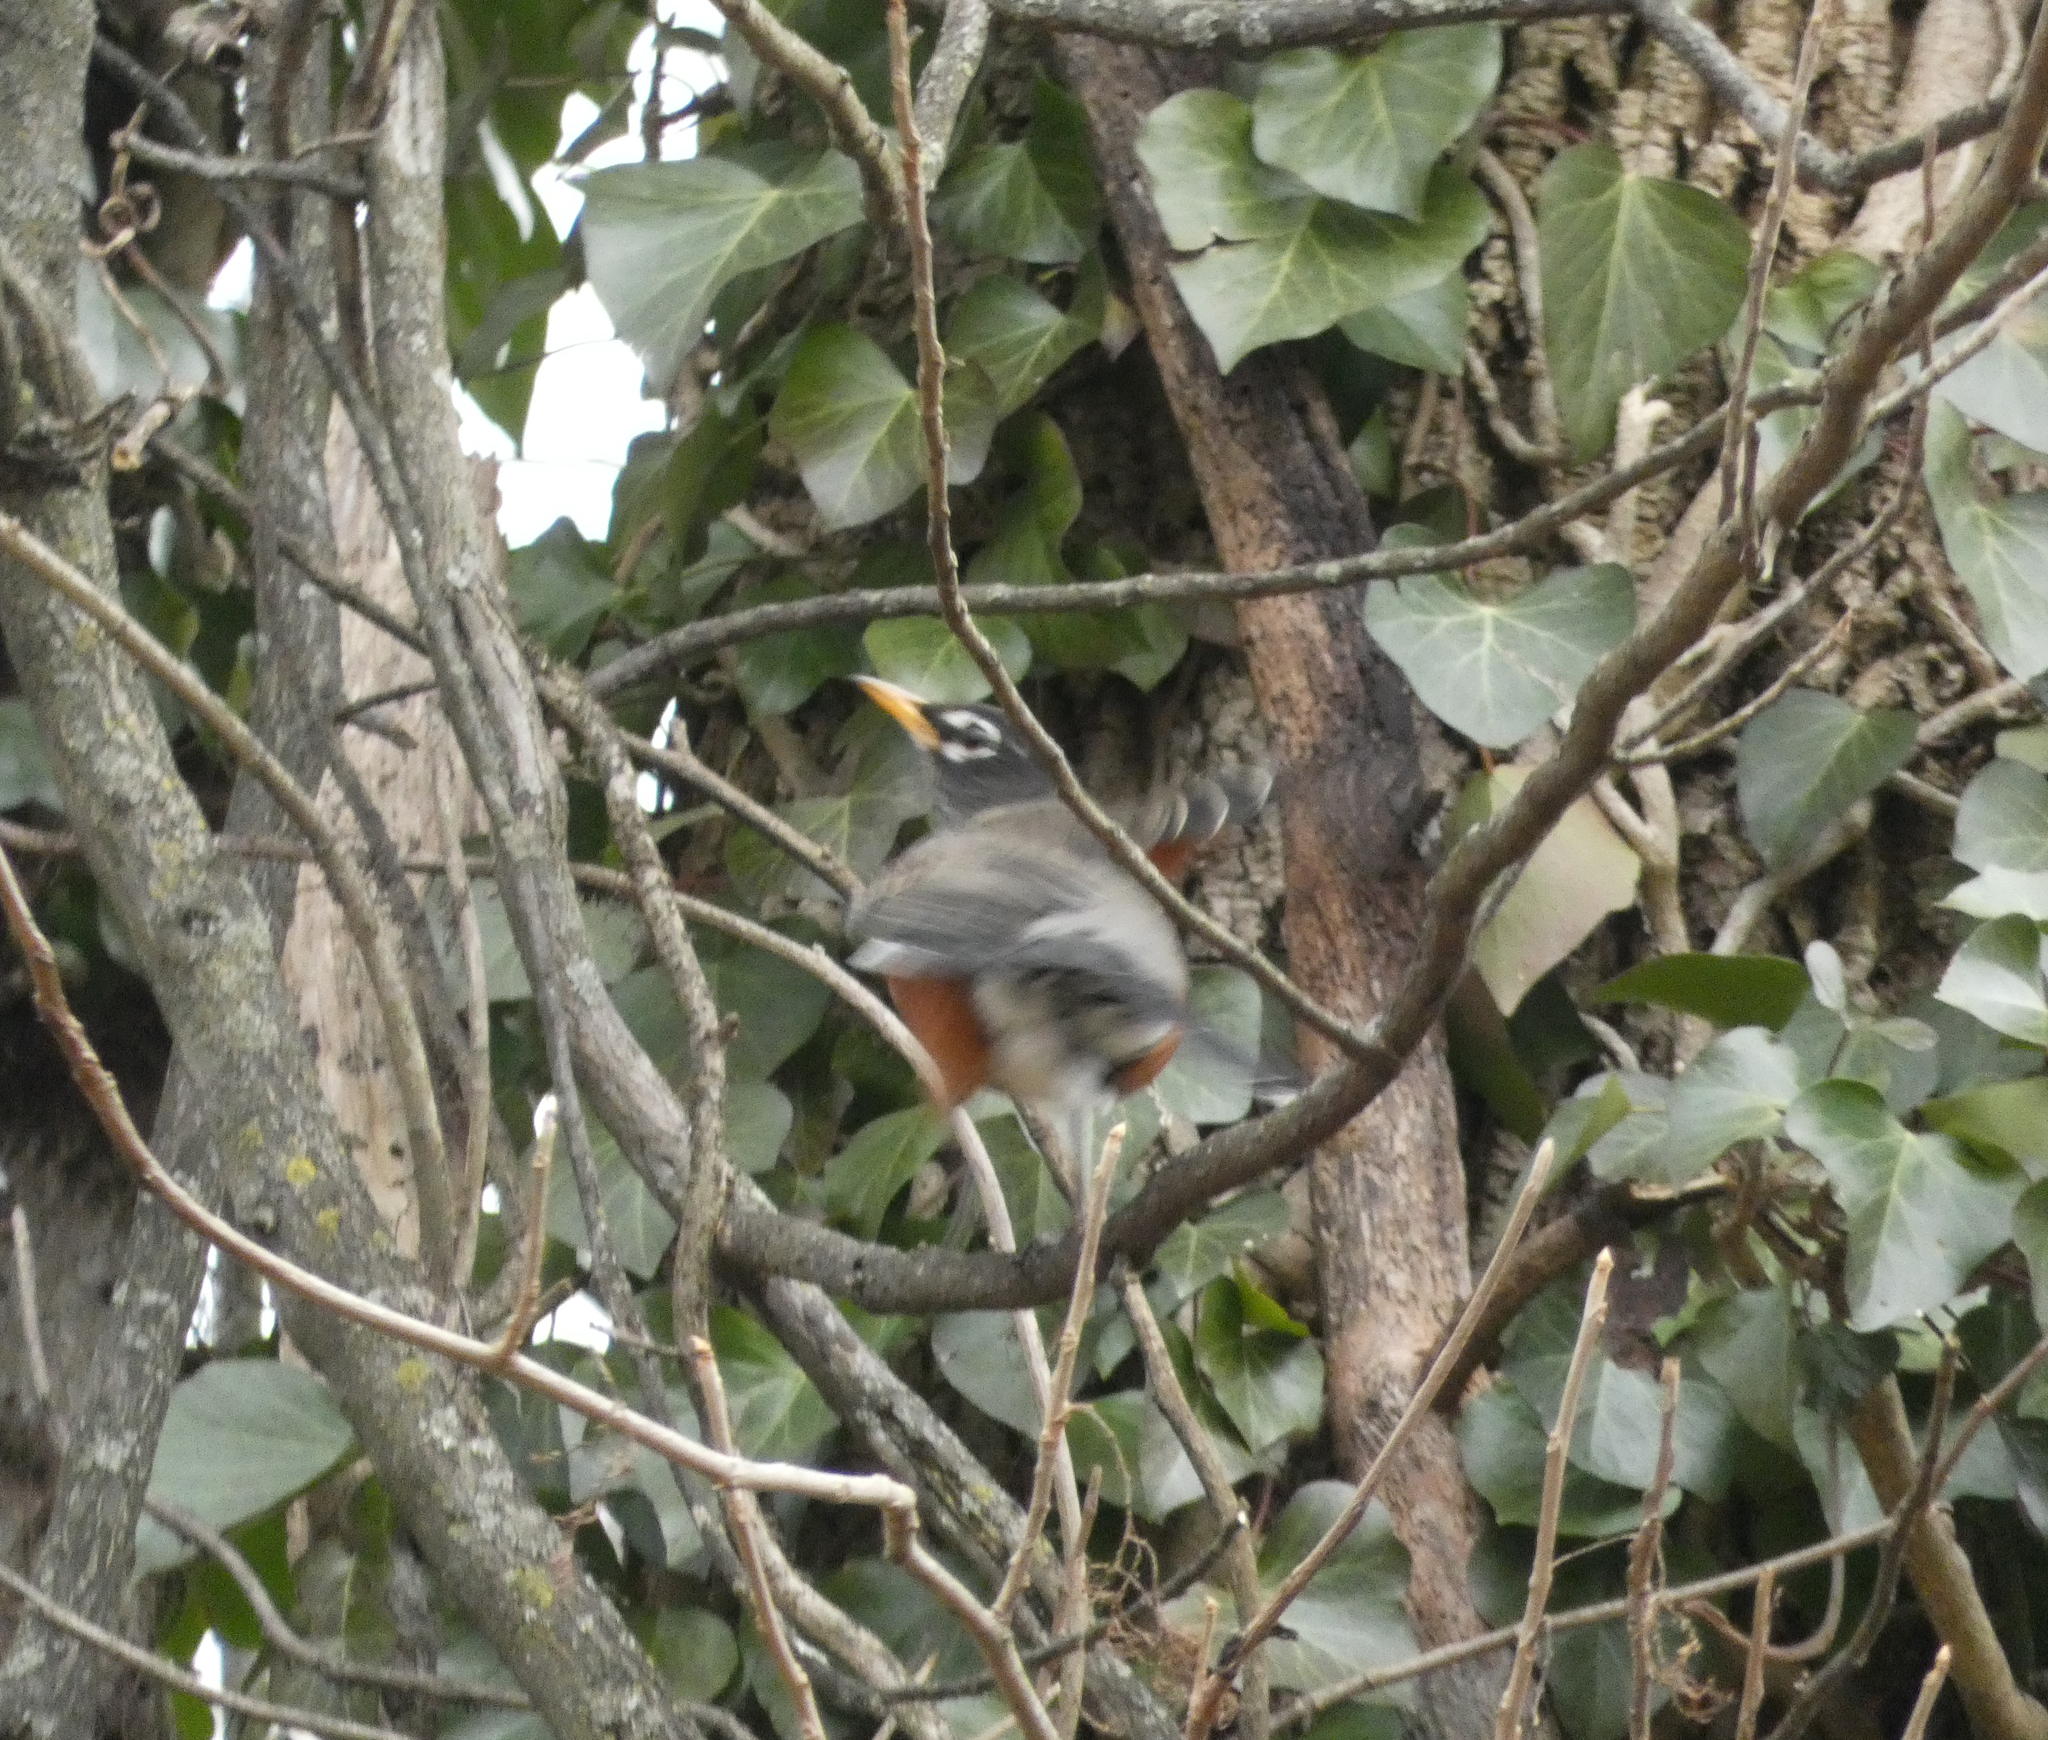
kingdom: Animalia
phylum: Chordata
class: Aves
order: Passeriformes
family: Turdidae
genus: Turdus
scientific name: Turdus migratorius
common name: American robin
